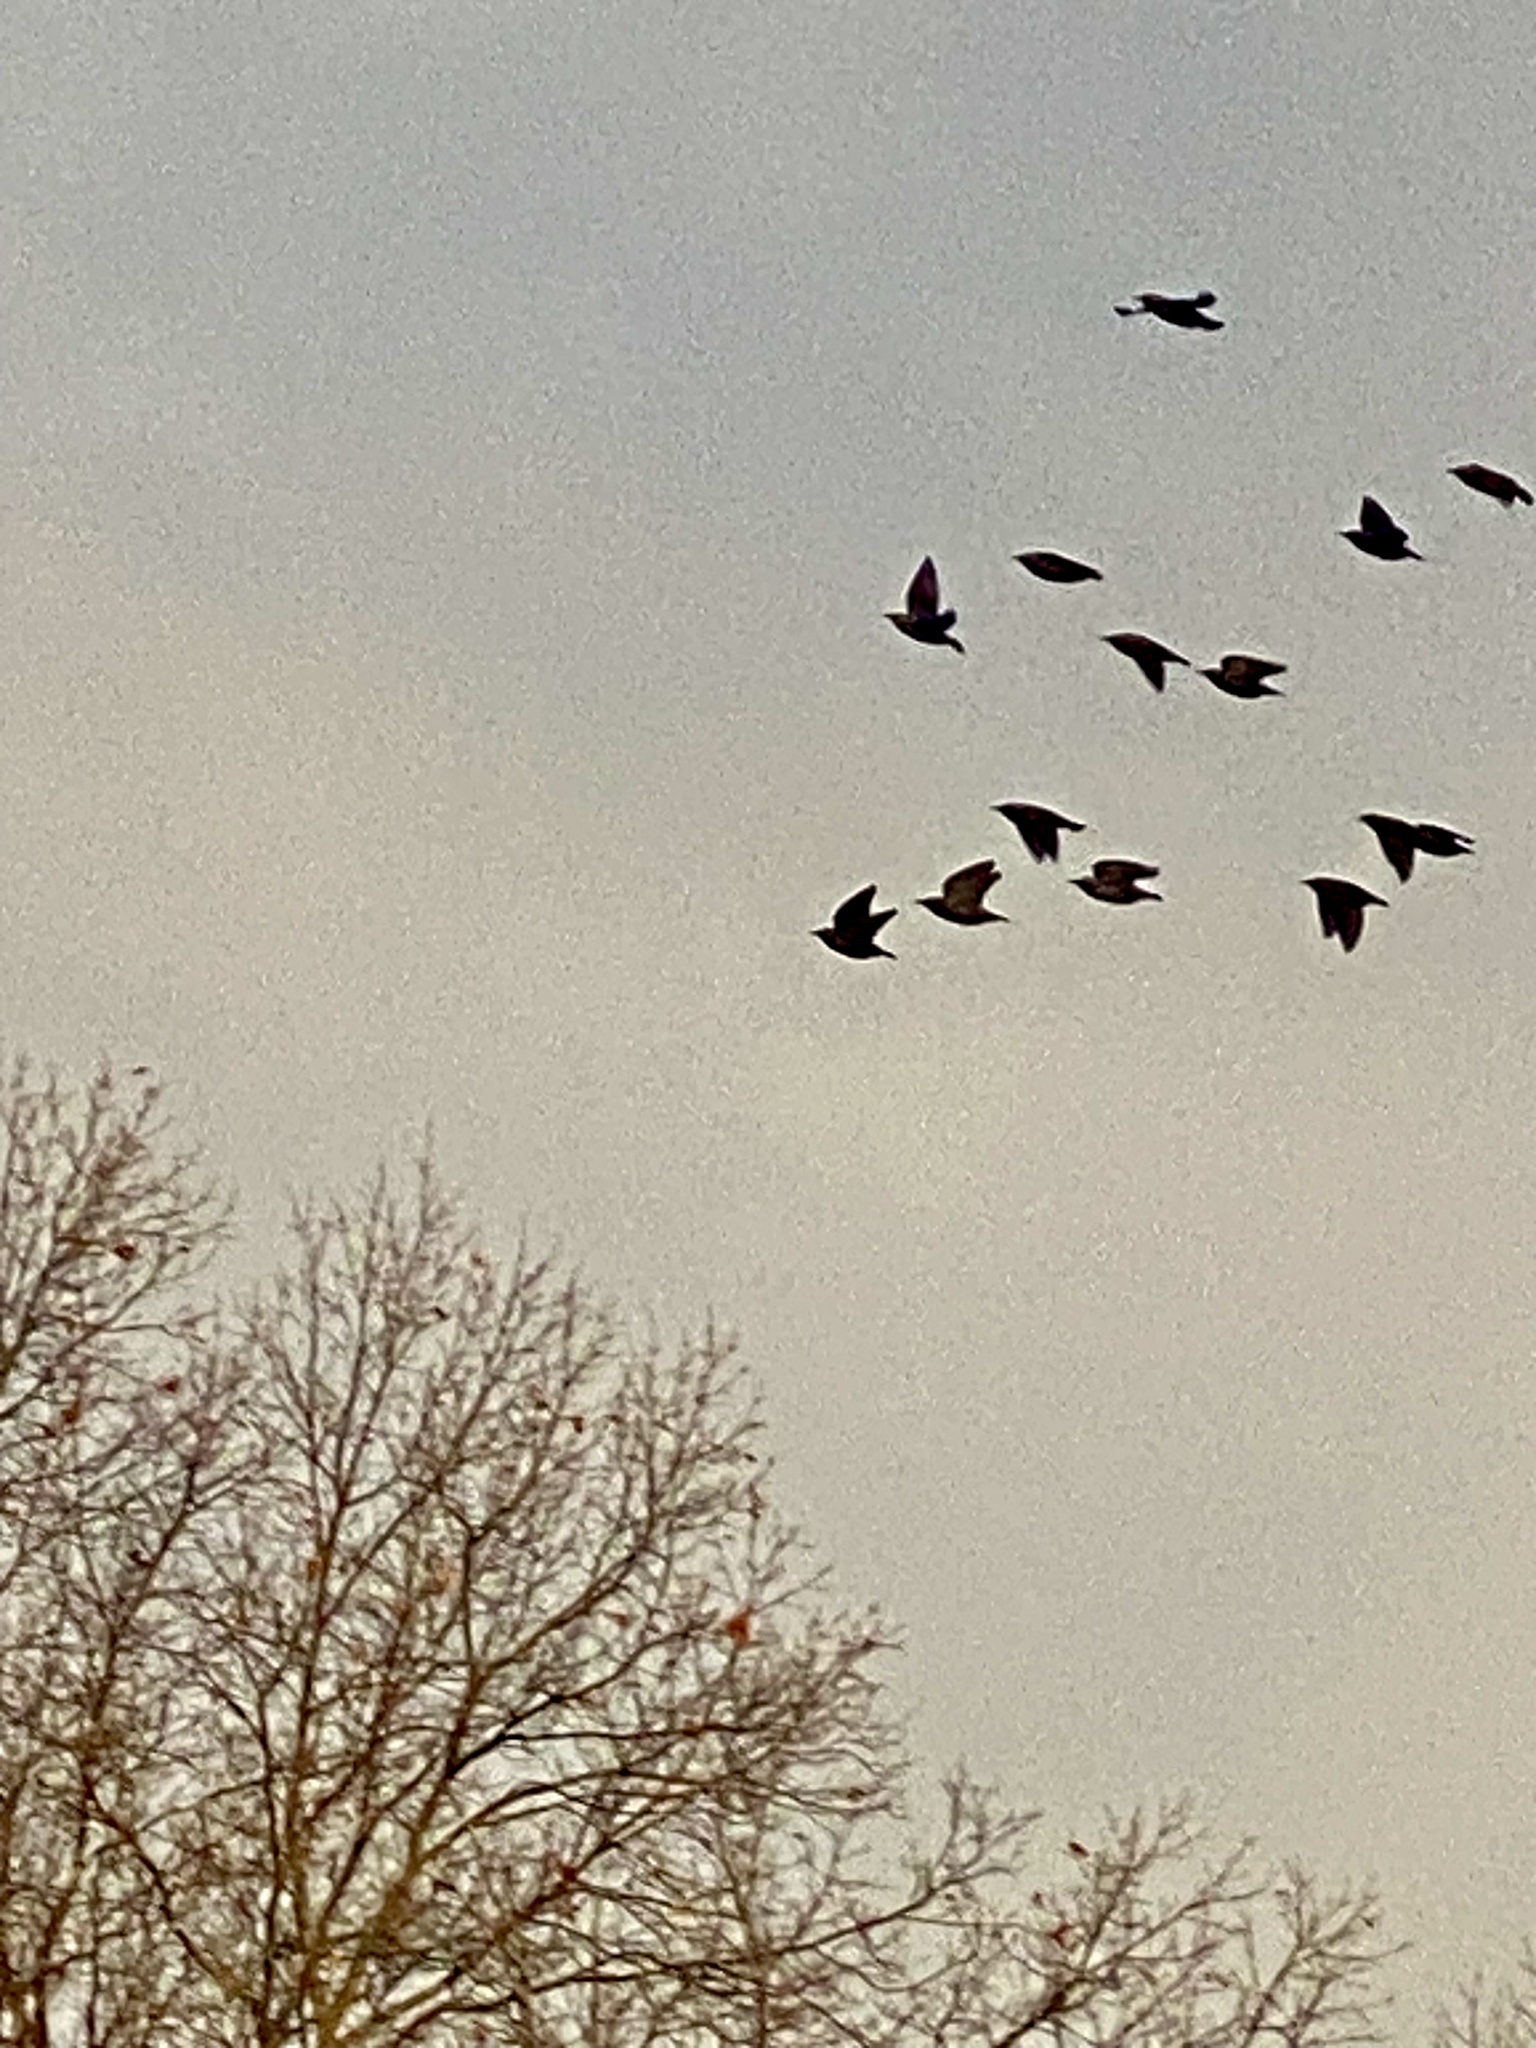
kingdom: Animalia
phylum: Chordata
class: Aves
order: Passeriformes
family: Sturnidae
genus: Sturnus
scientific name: Sturnus vulgaris
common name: Common starling
